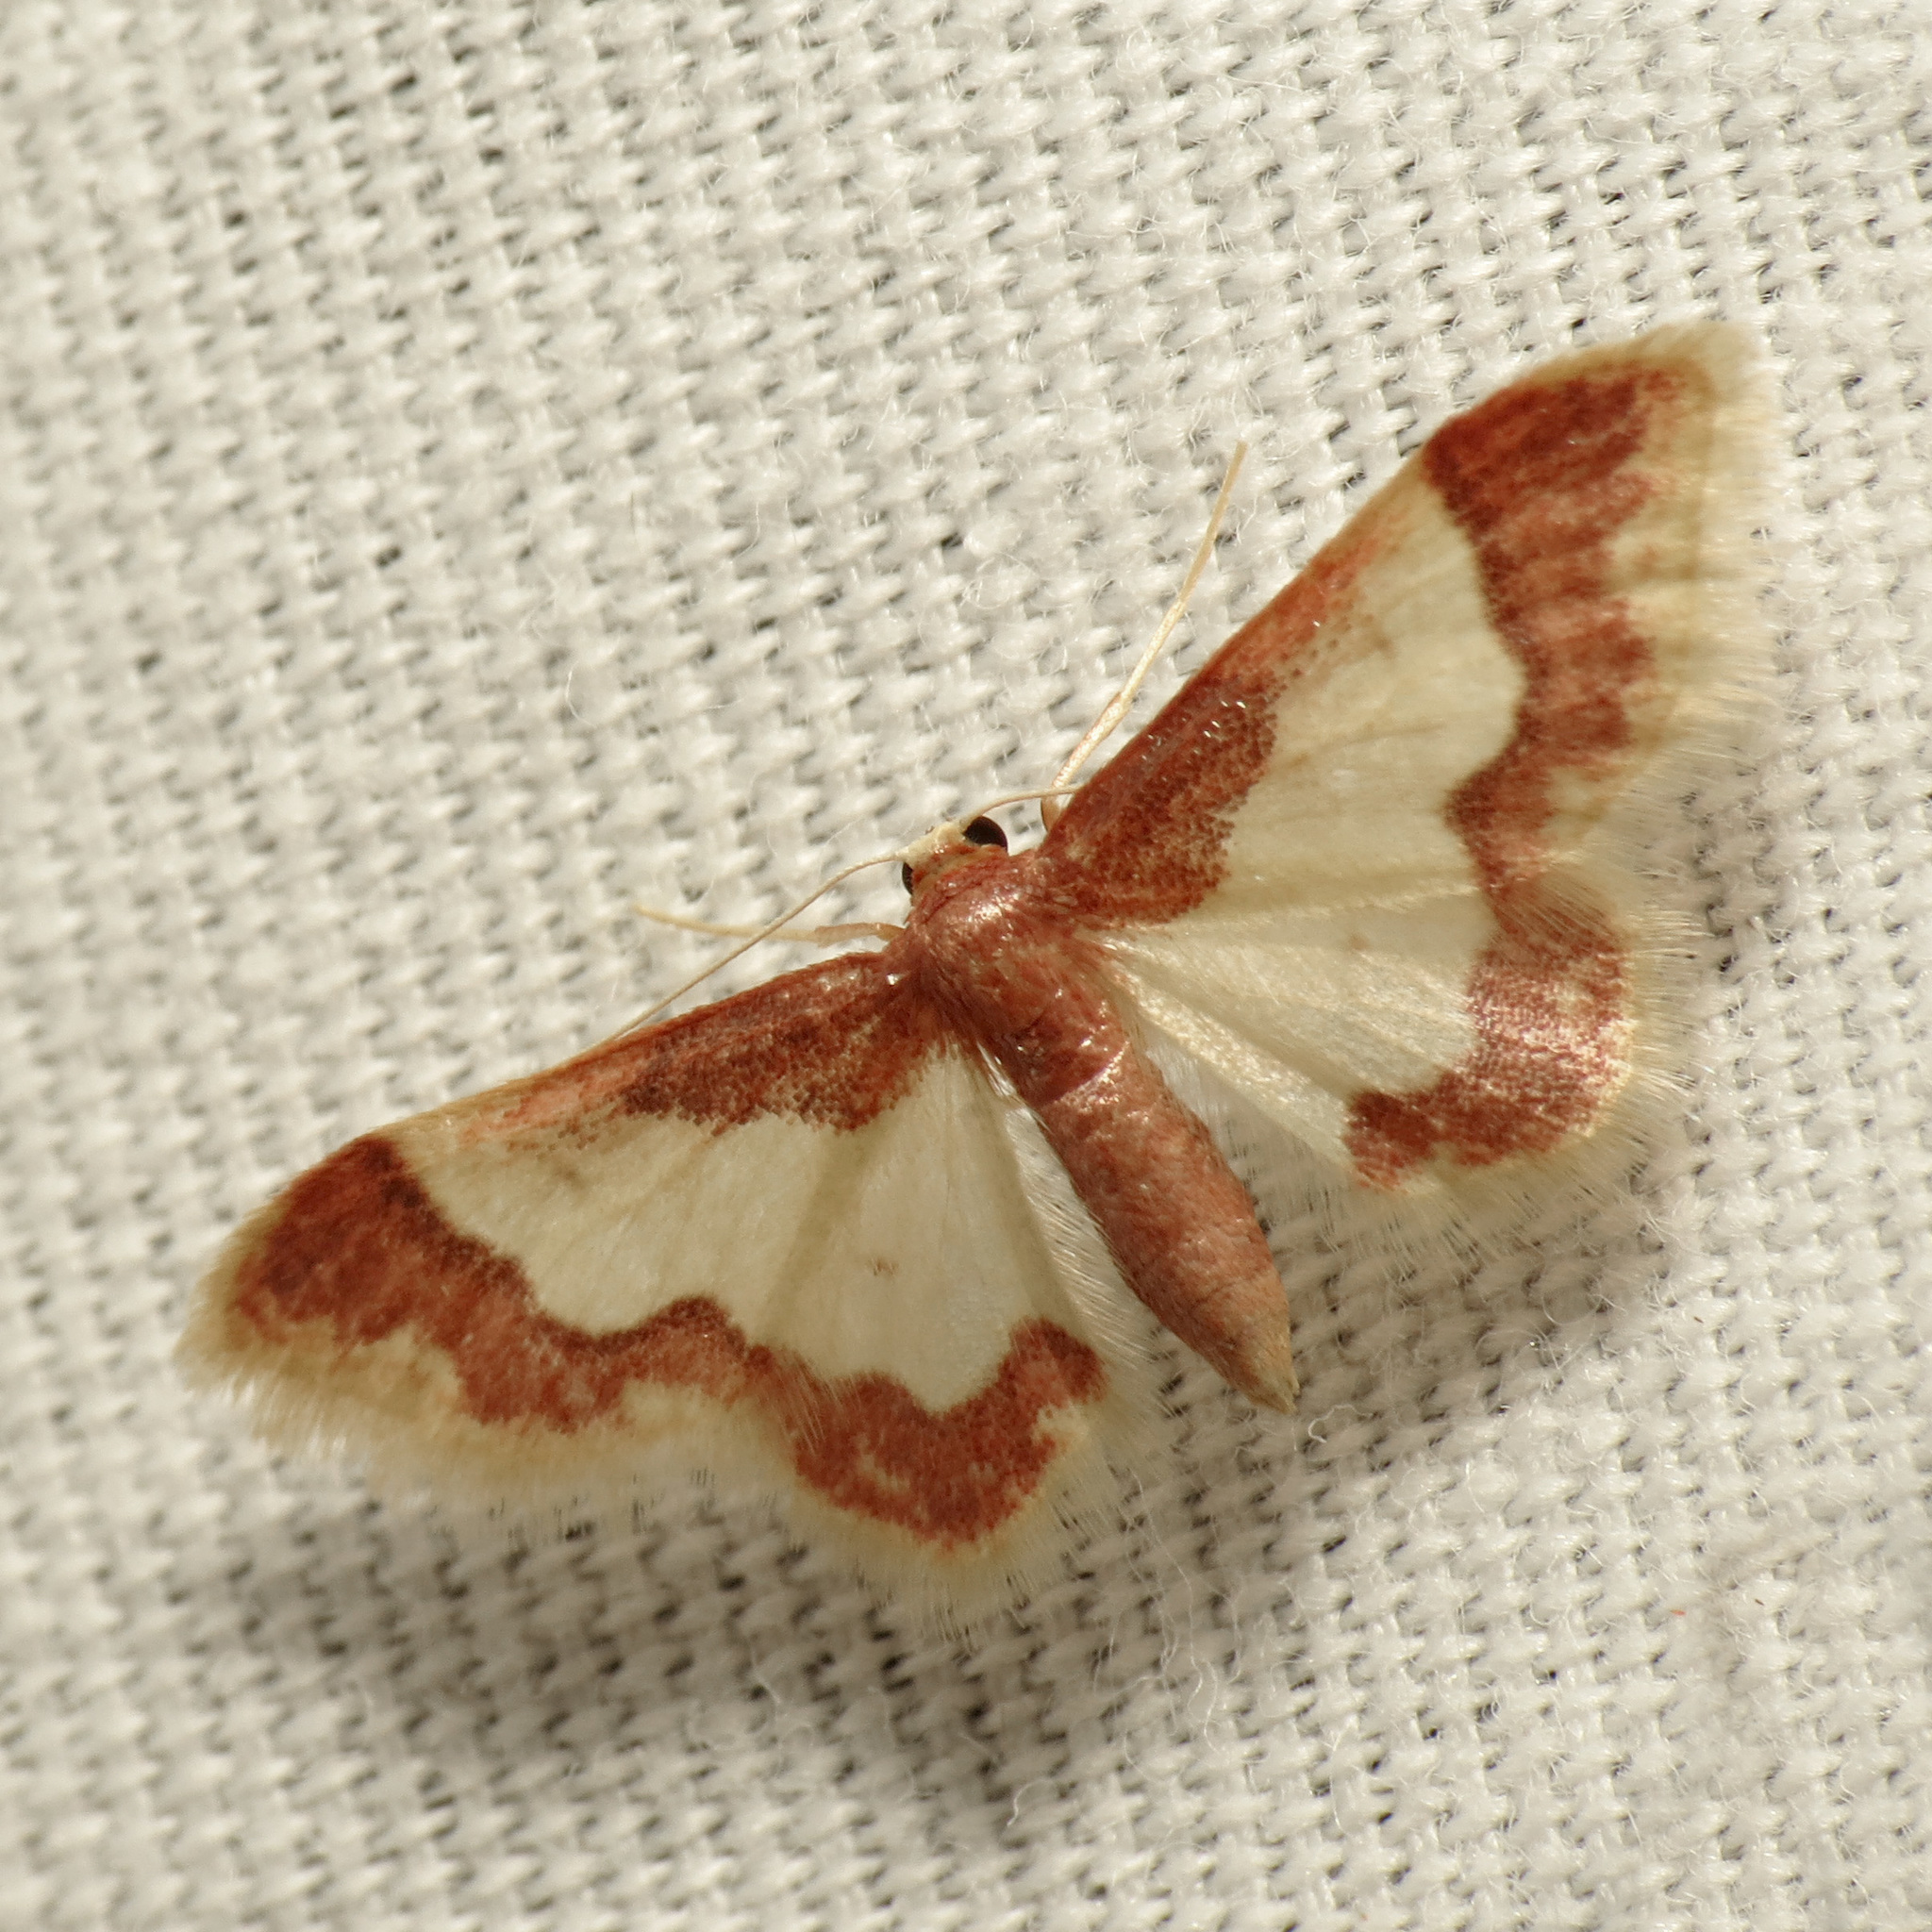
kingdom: Animalia
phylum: Arthropoda
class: Insecta
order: Lepidoptera
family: Geometridae
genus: Idaea
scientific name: Idaea basinta
